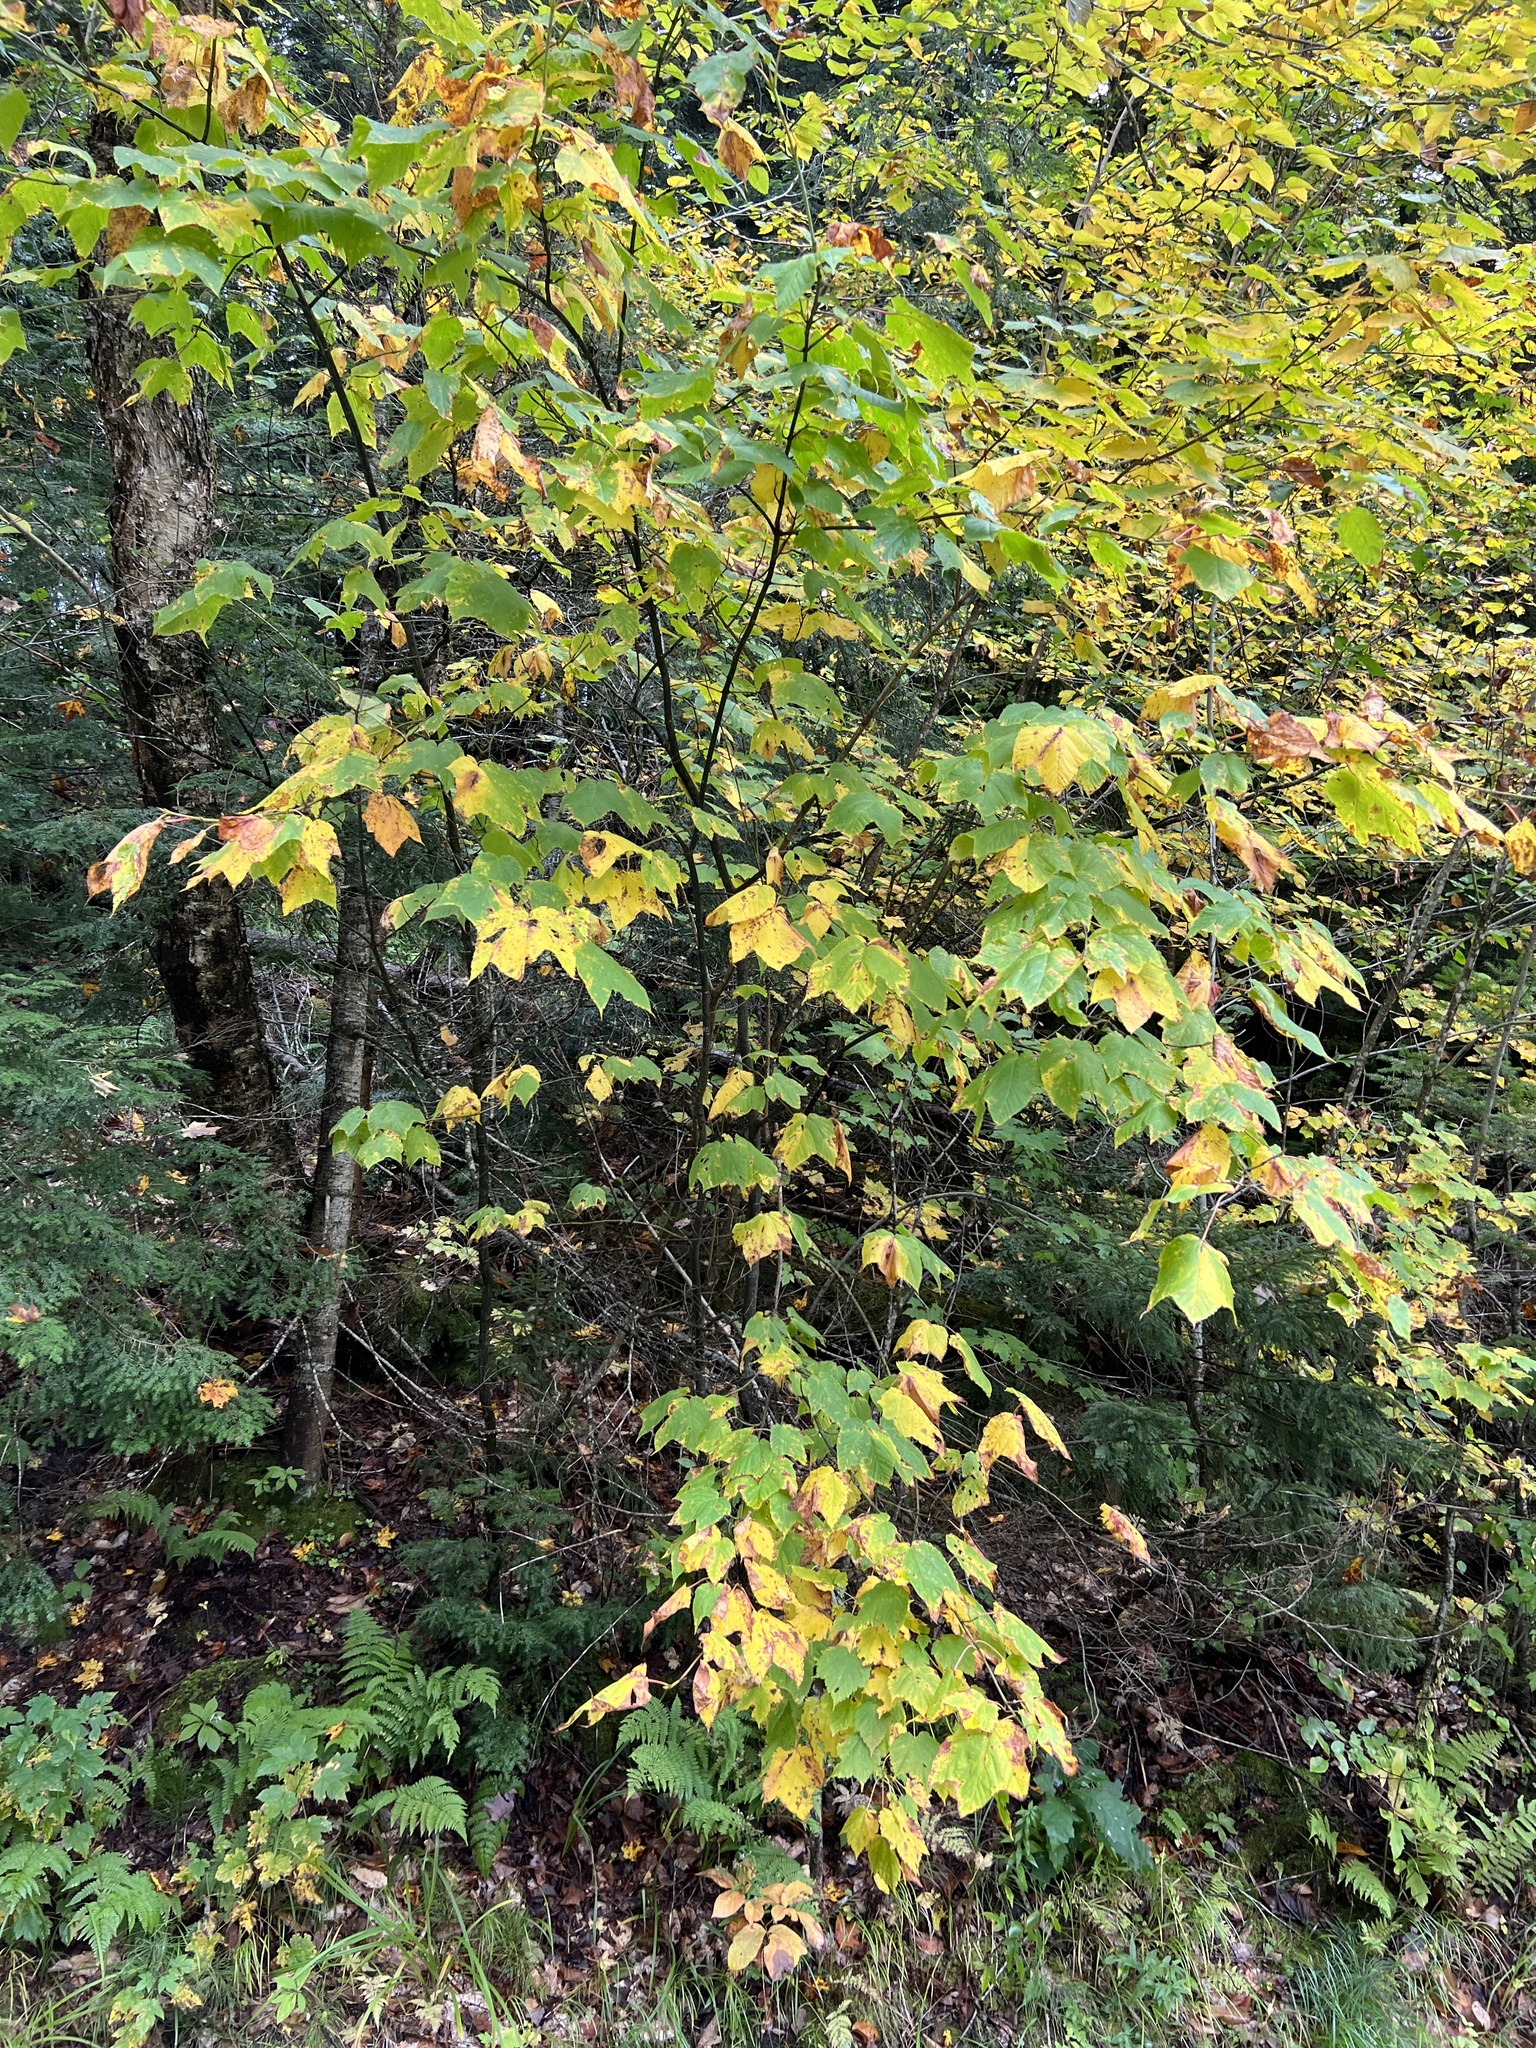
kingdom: Plantae
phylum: Tracheophyta
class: Magnoliopsida
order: Sapindales
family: Sapindaceae
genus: Acer
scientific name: Acer pensylvanicum
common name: Moosewood
